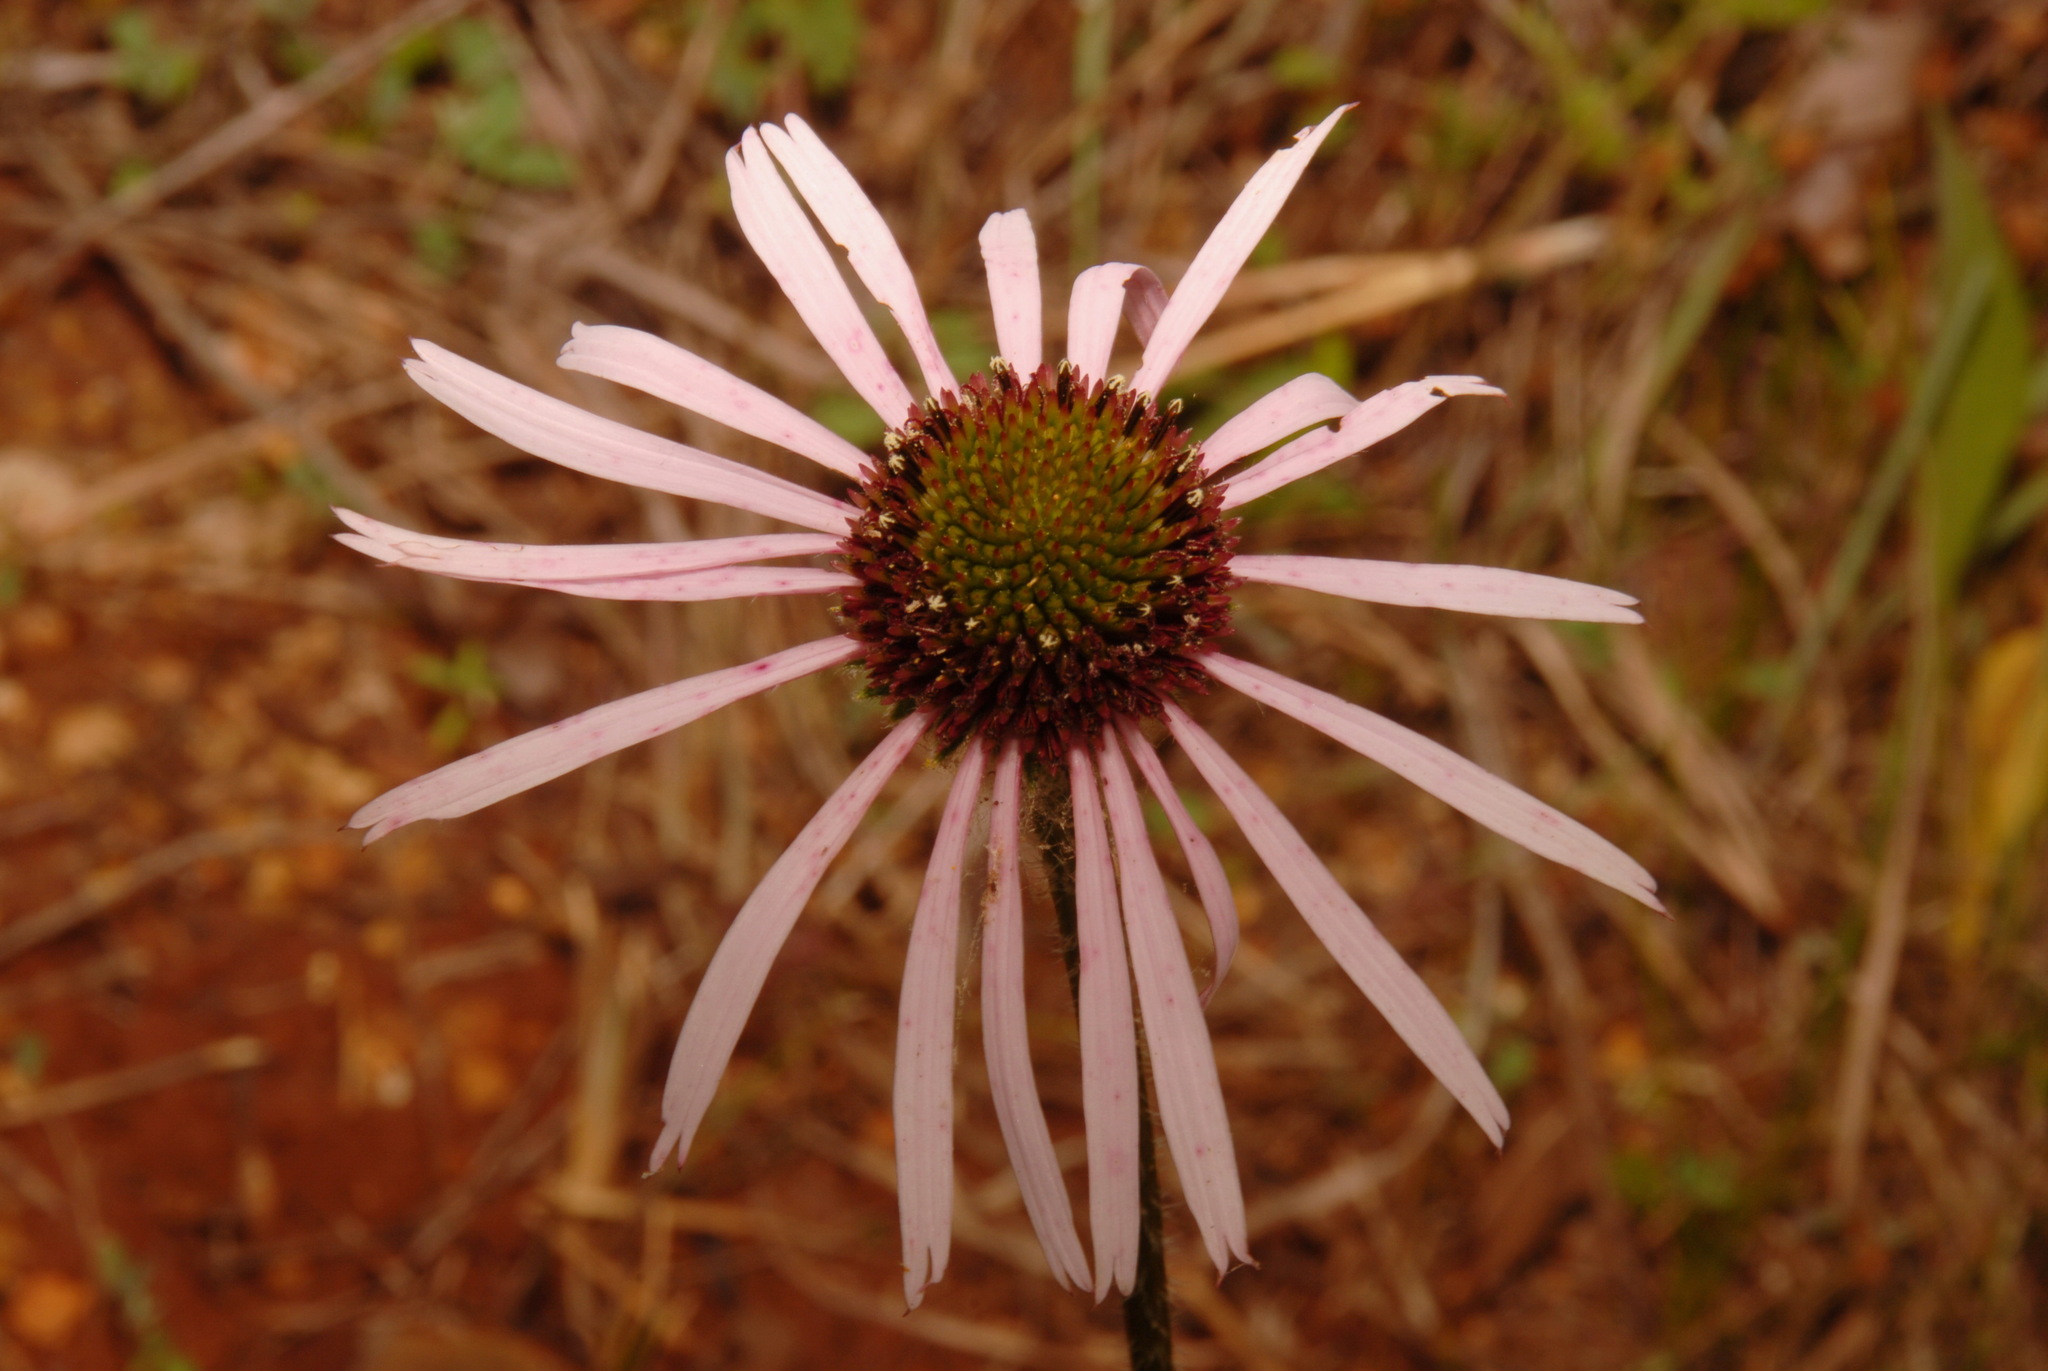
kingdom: Plantae
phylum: Tracheophyta
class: Magnoliopsida
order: Asterales
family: Asteraceae
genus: Echinacea
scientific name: Echinacea pallida
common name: Pale echinacea
